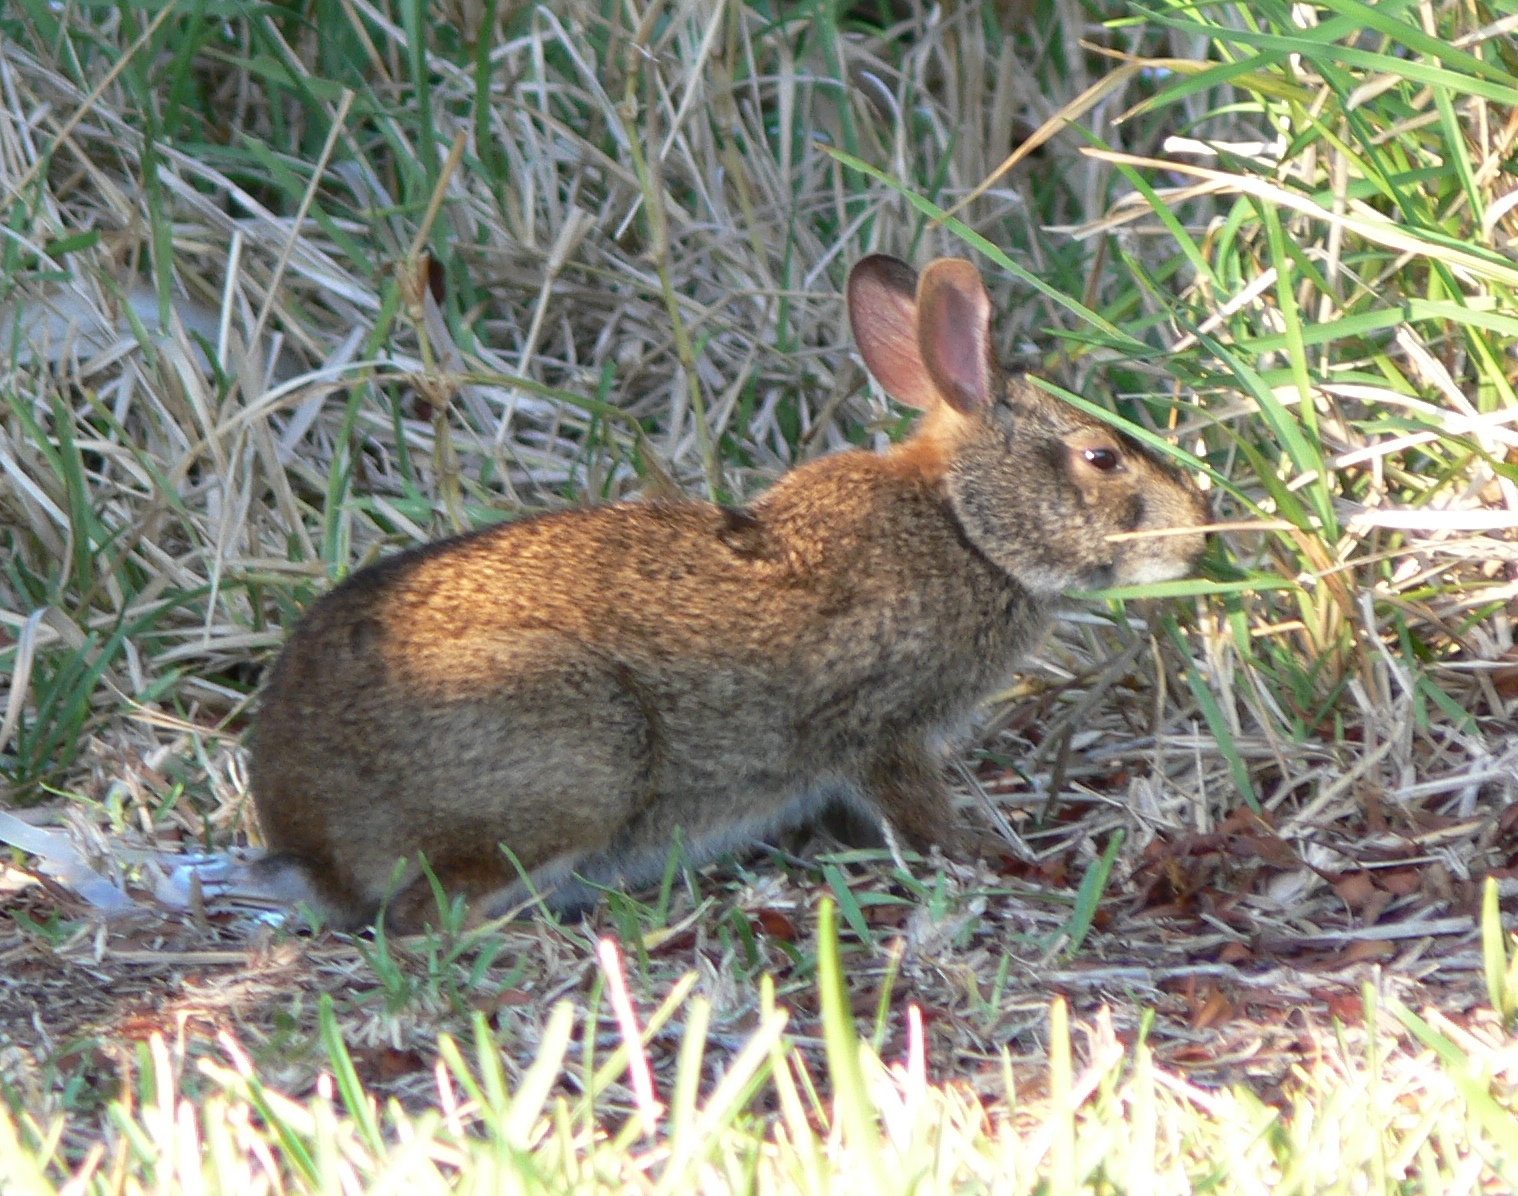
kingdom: Animalia
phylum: Chordata
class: Mammalia
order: Lagomorpha
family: Leporidae
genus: Sylvilagus
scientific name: Sylvilagus palustris
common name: Marsh rabbit
